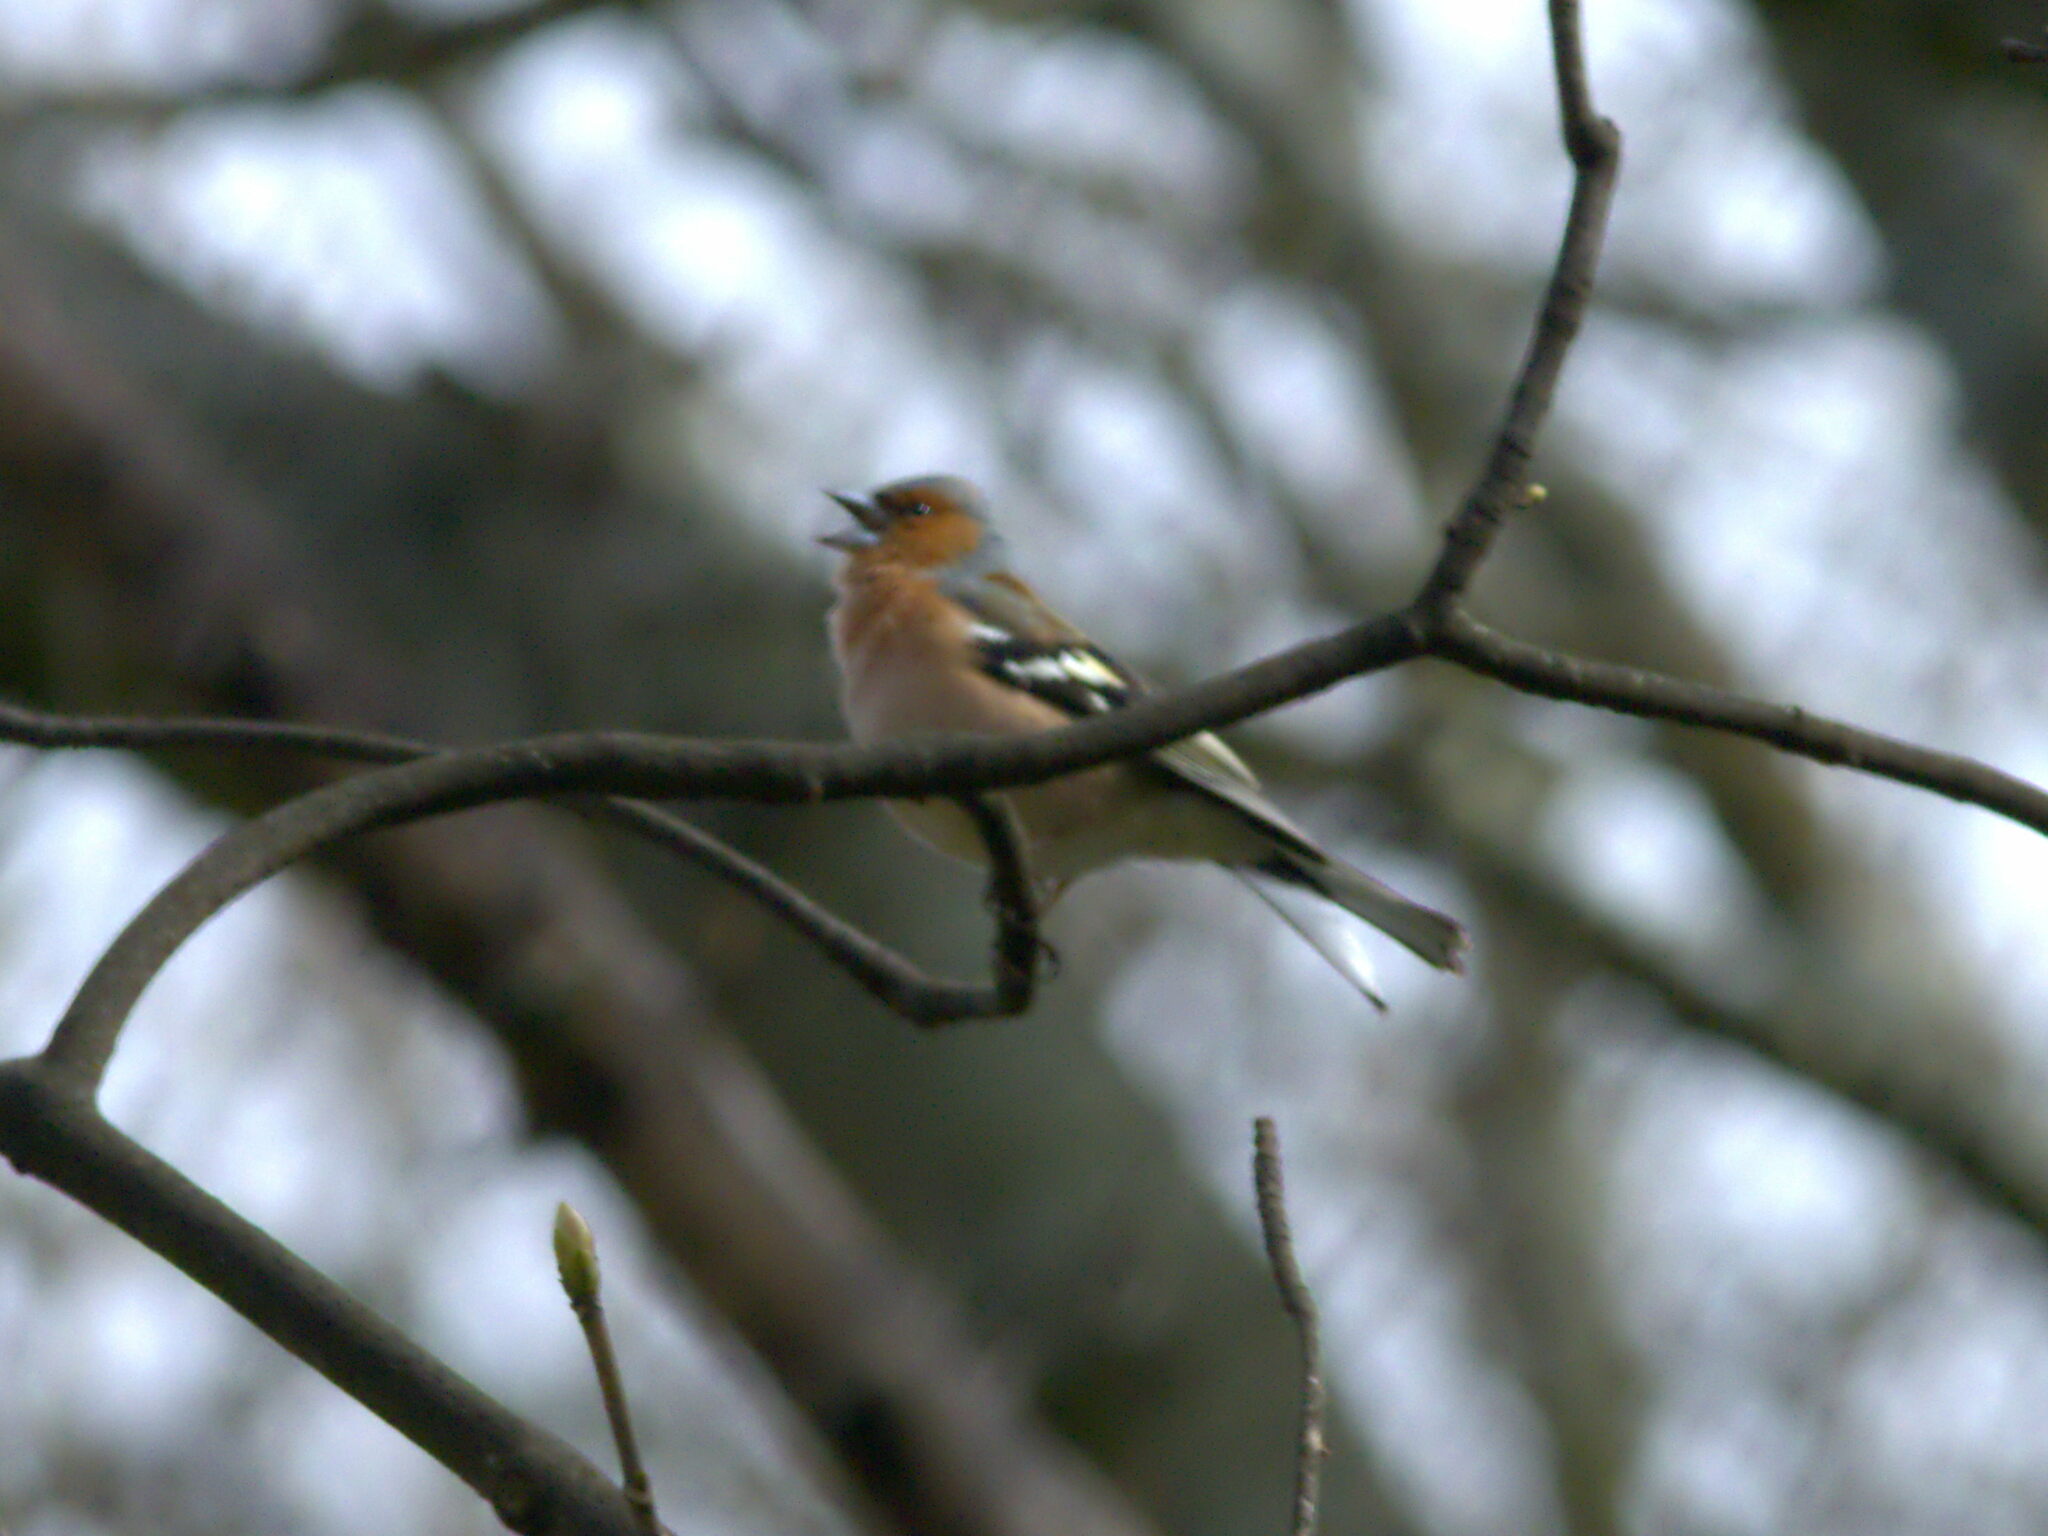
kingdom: Animalia
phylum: Chordata
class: Aves
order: Passeriformes
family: Fringillidae
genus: Fringilla
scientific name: Fringilla coelebs
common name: Common chaffinch
